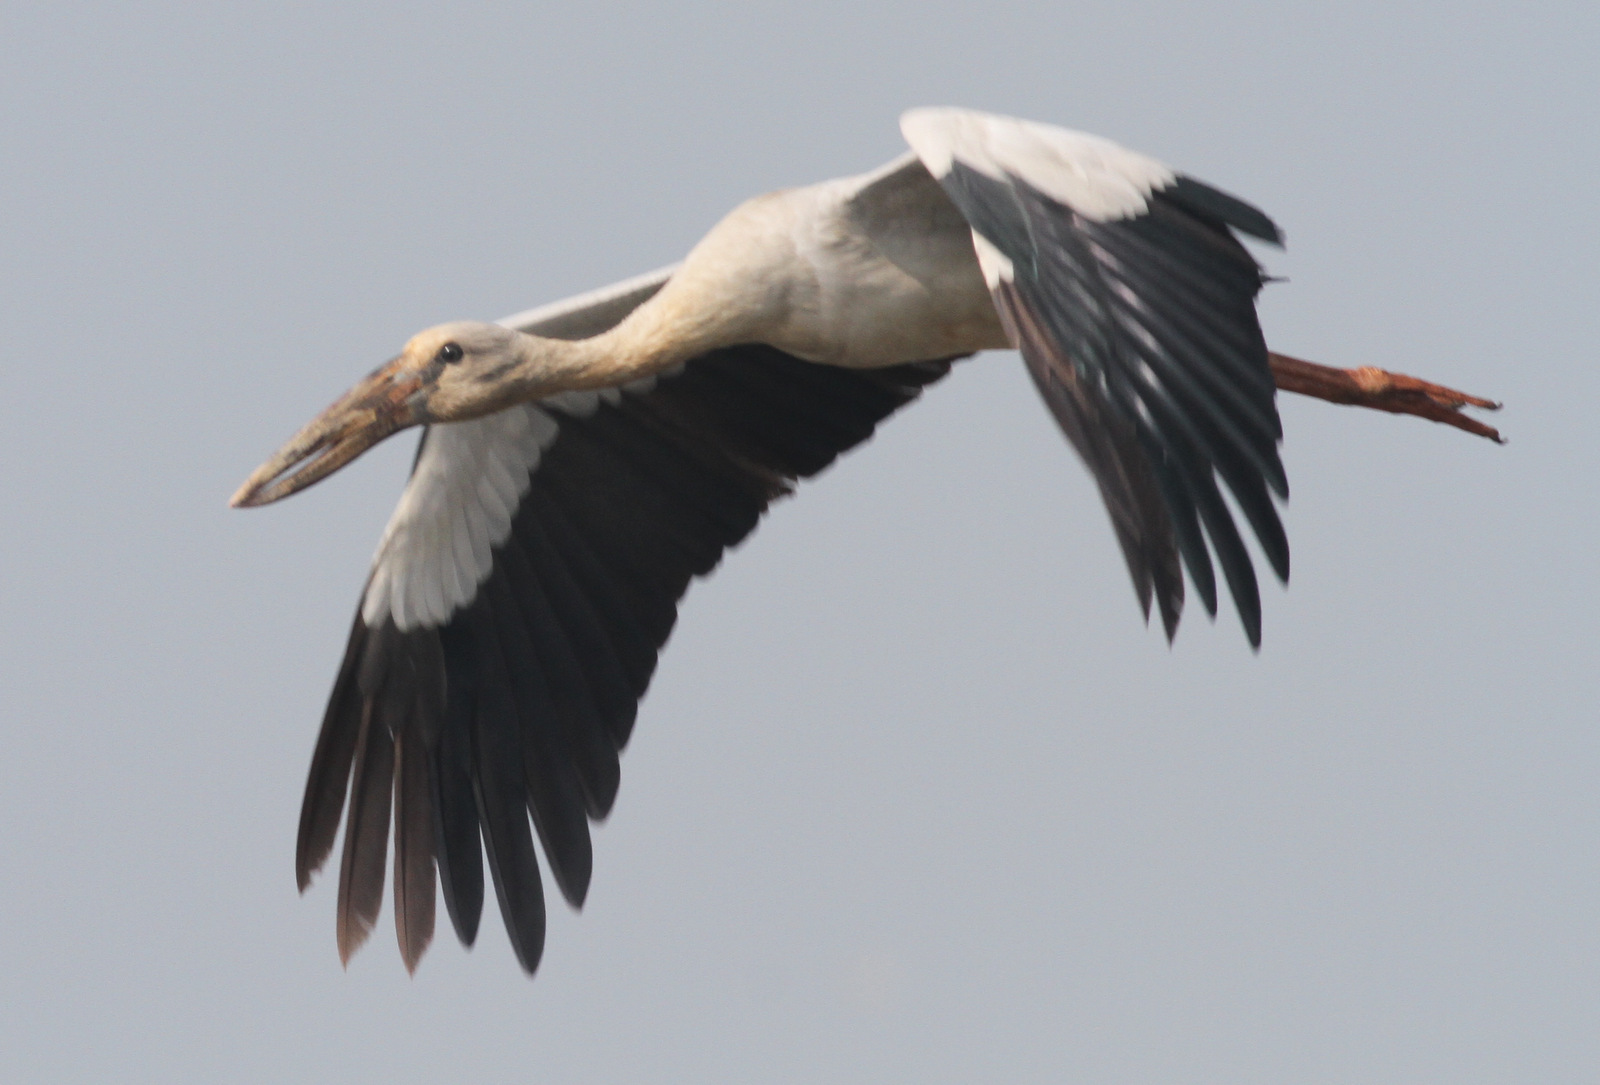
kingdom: Animalia
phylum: Chordata
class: Aves
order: Ciconiiformes
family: Ciconiidae
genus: Anastomus
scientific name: Anastomus oscitans
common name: Asian openbill
